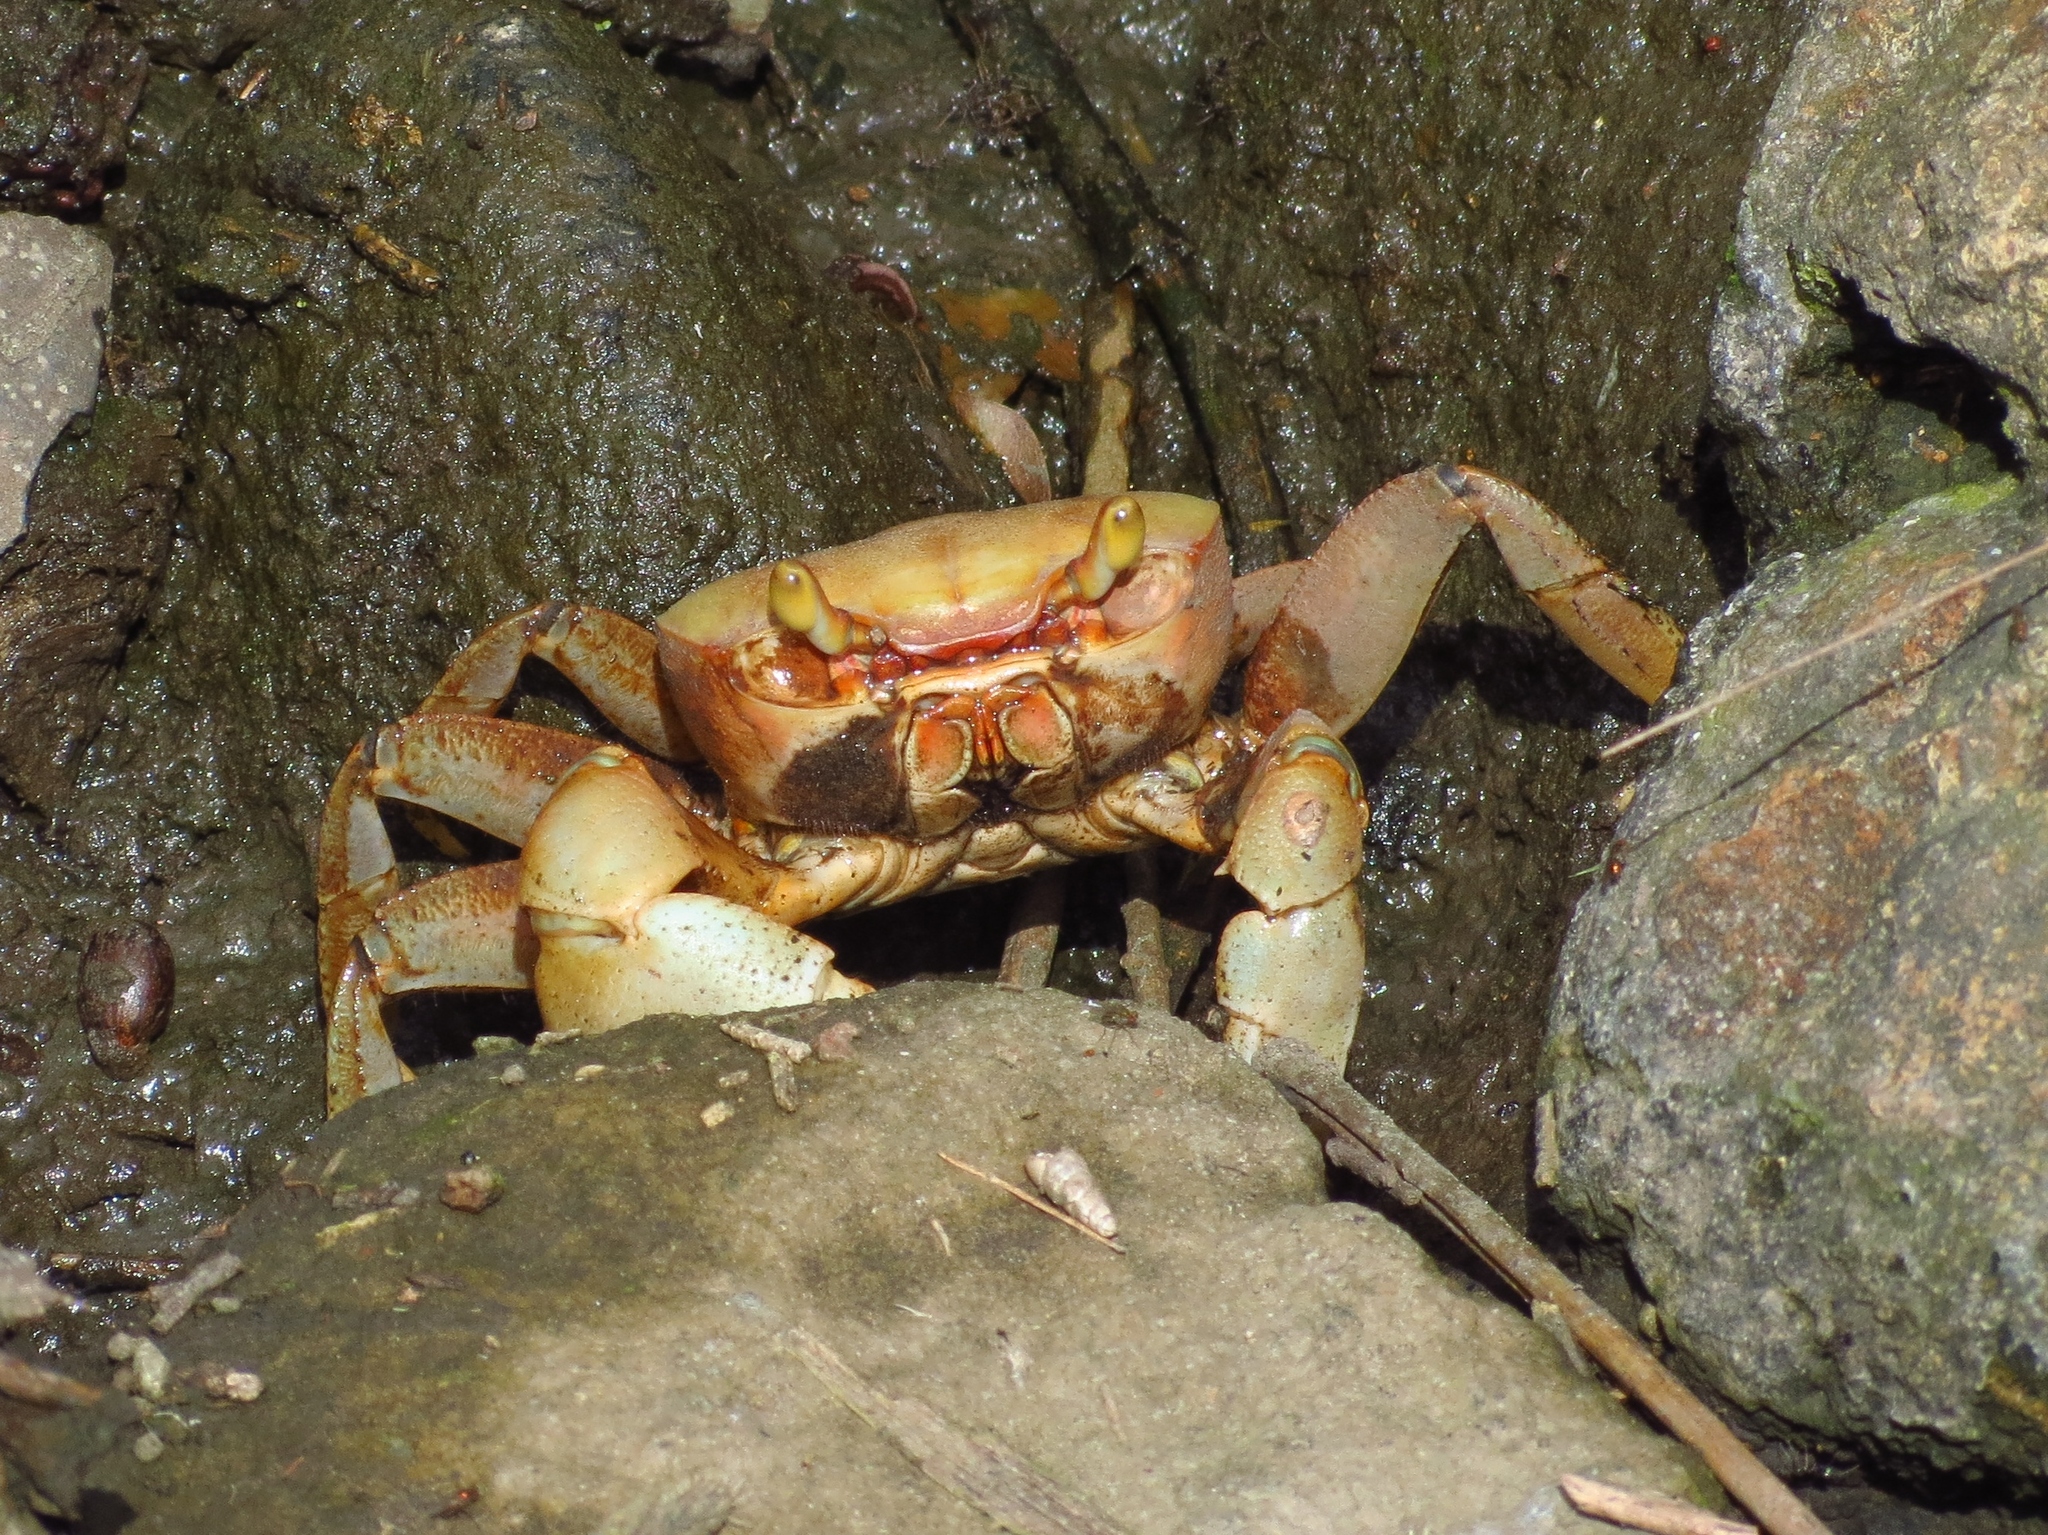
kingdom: Animalia
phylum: Arthropoda
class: Malacostraca
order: Decapoda
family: Gecarcinidae
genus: Cardisoma
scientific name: Cardisoma guanhumi
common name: Great land crab
